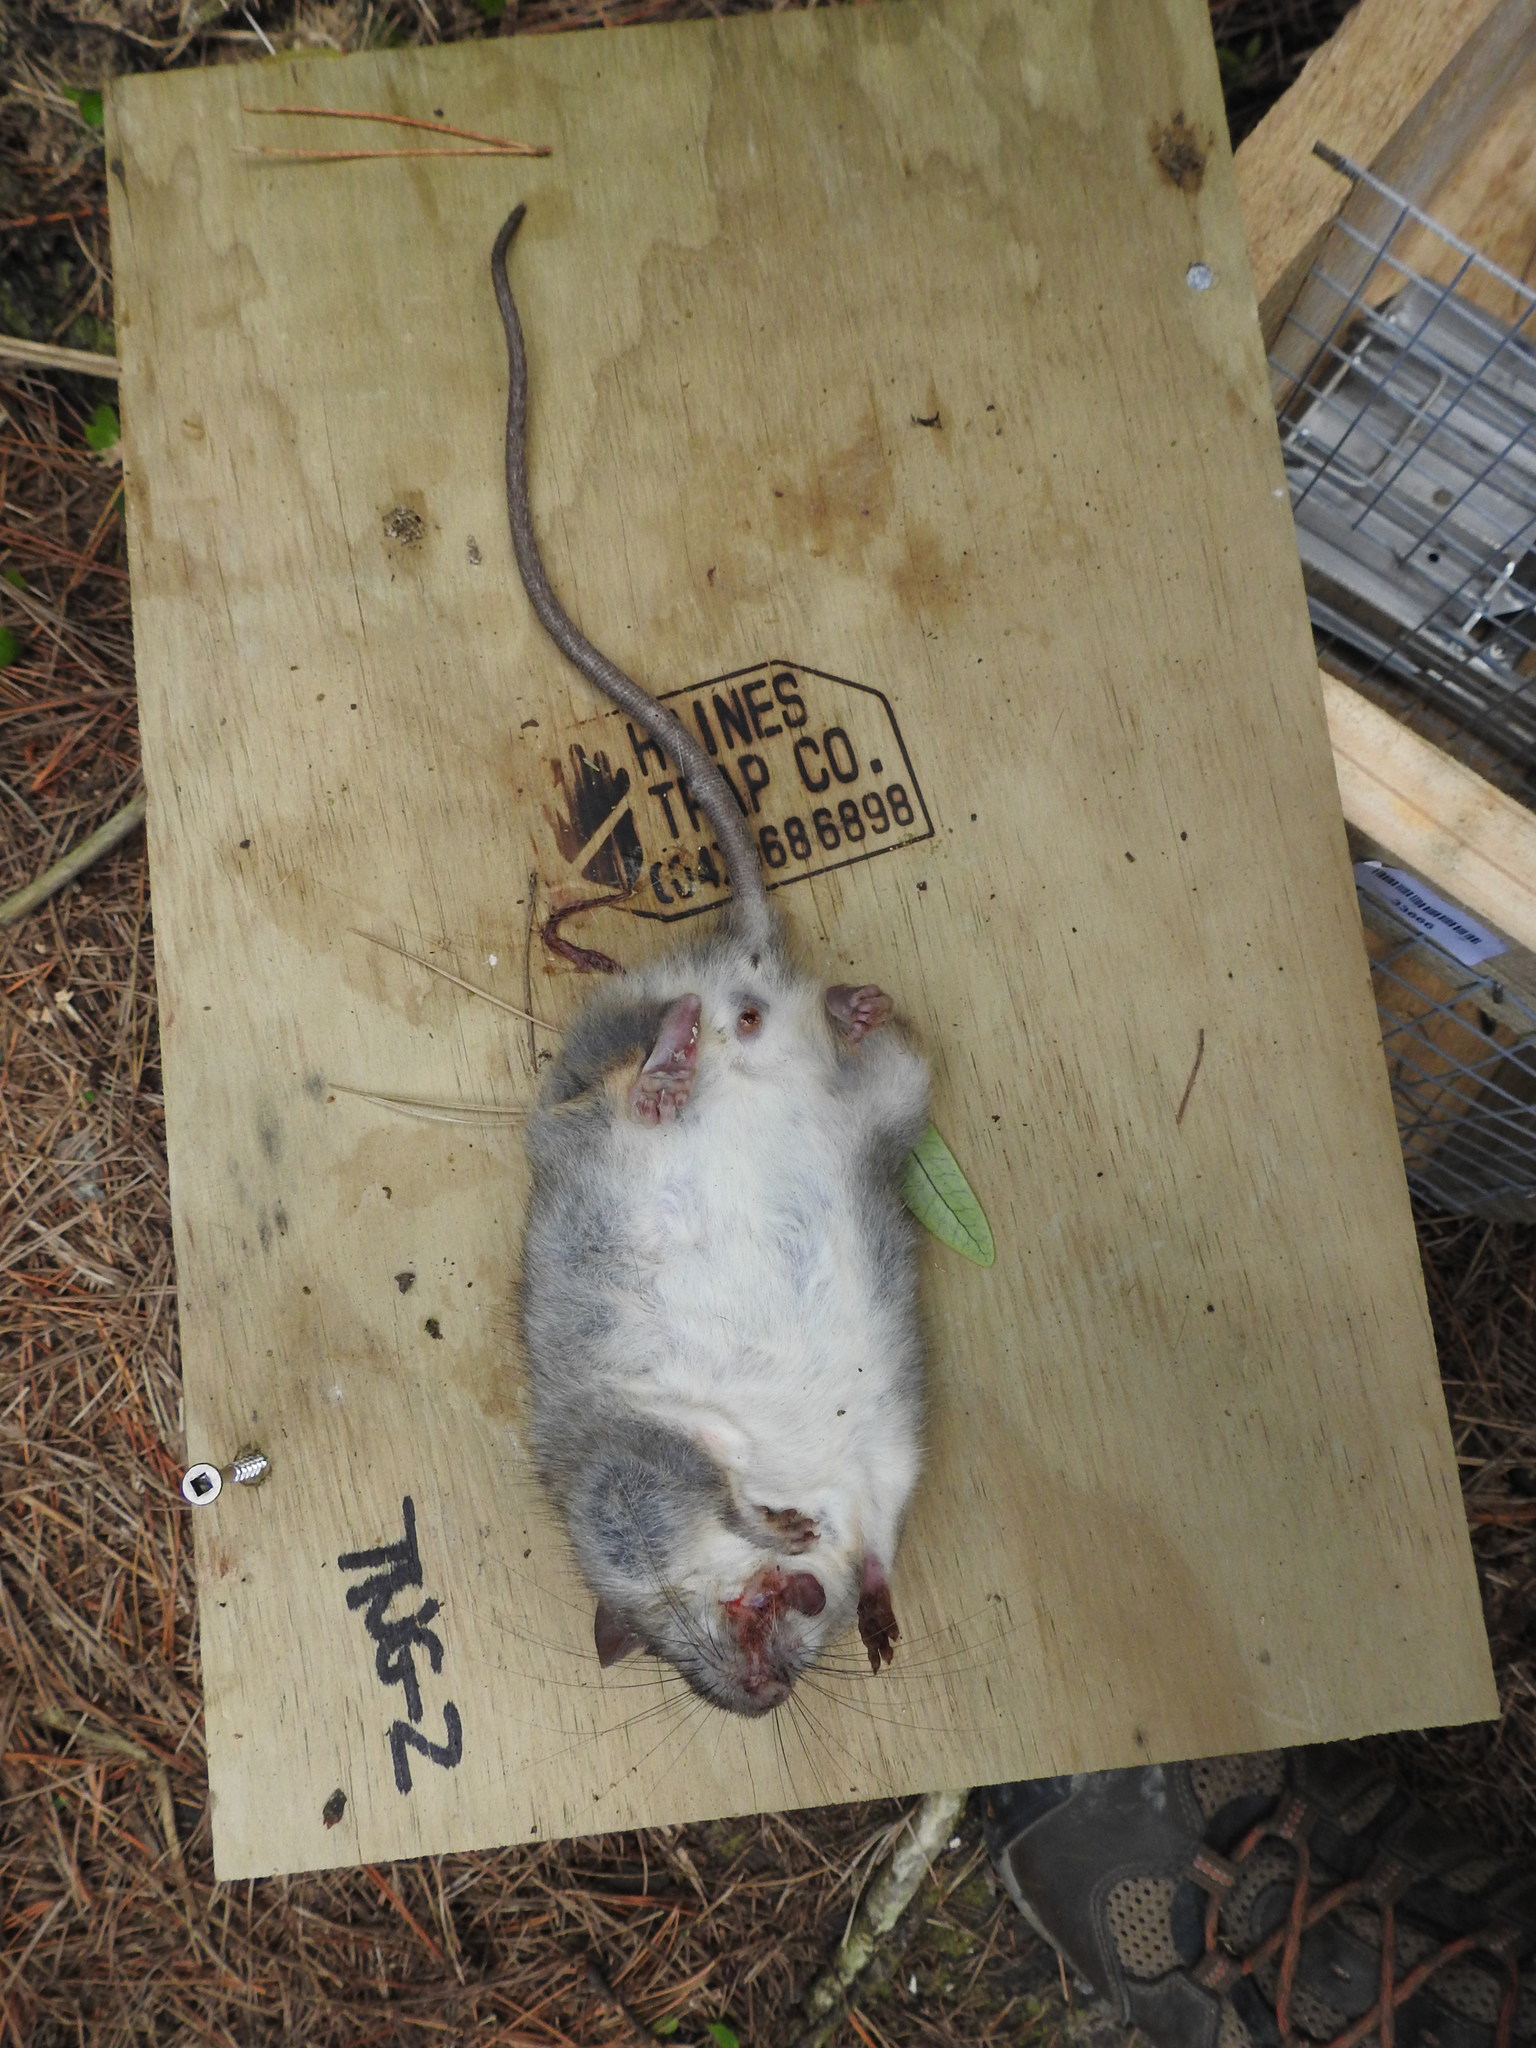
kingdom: Animalia
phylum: Chordata
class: Mammalia
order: Rodentia
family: Muridae
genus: Rattus
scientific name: Rattus rattus
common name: Black rat
